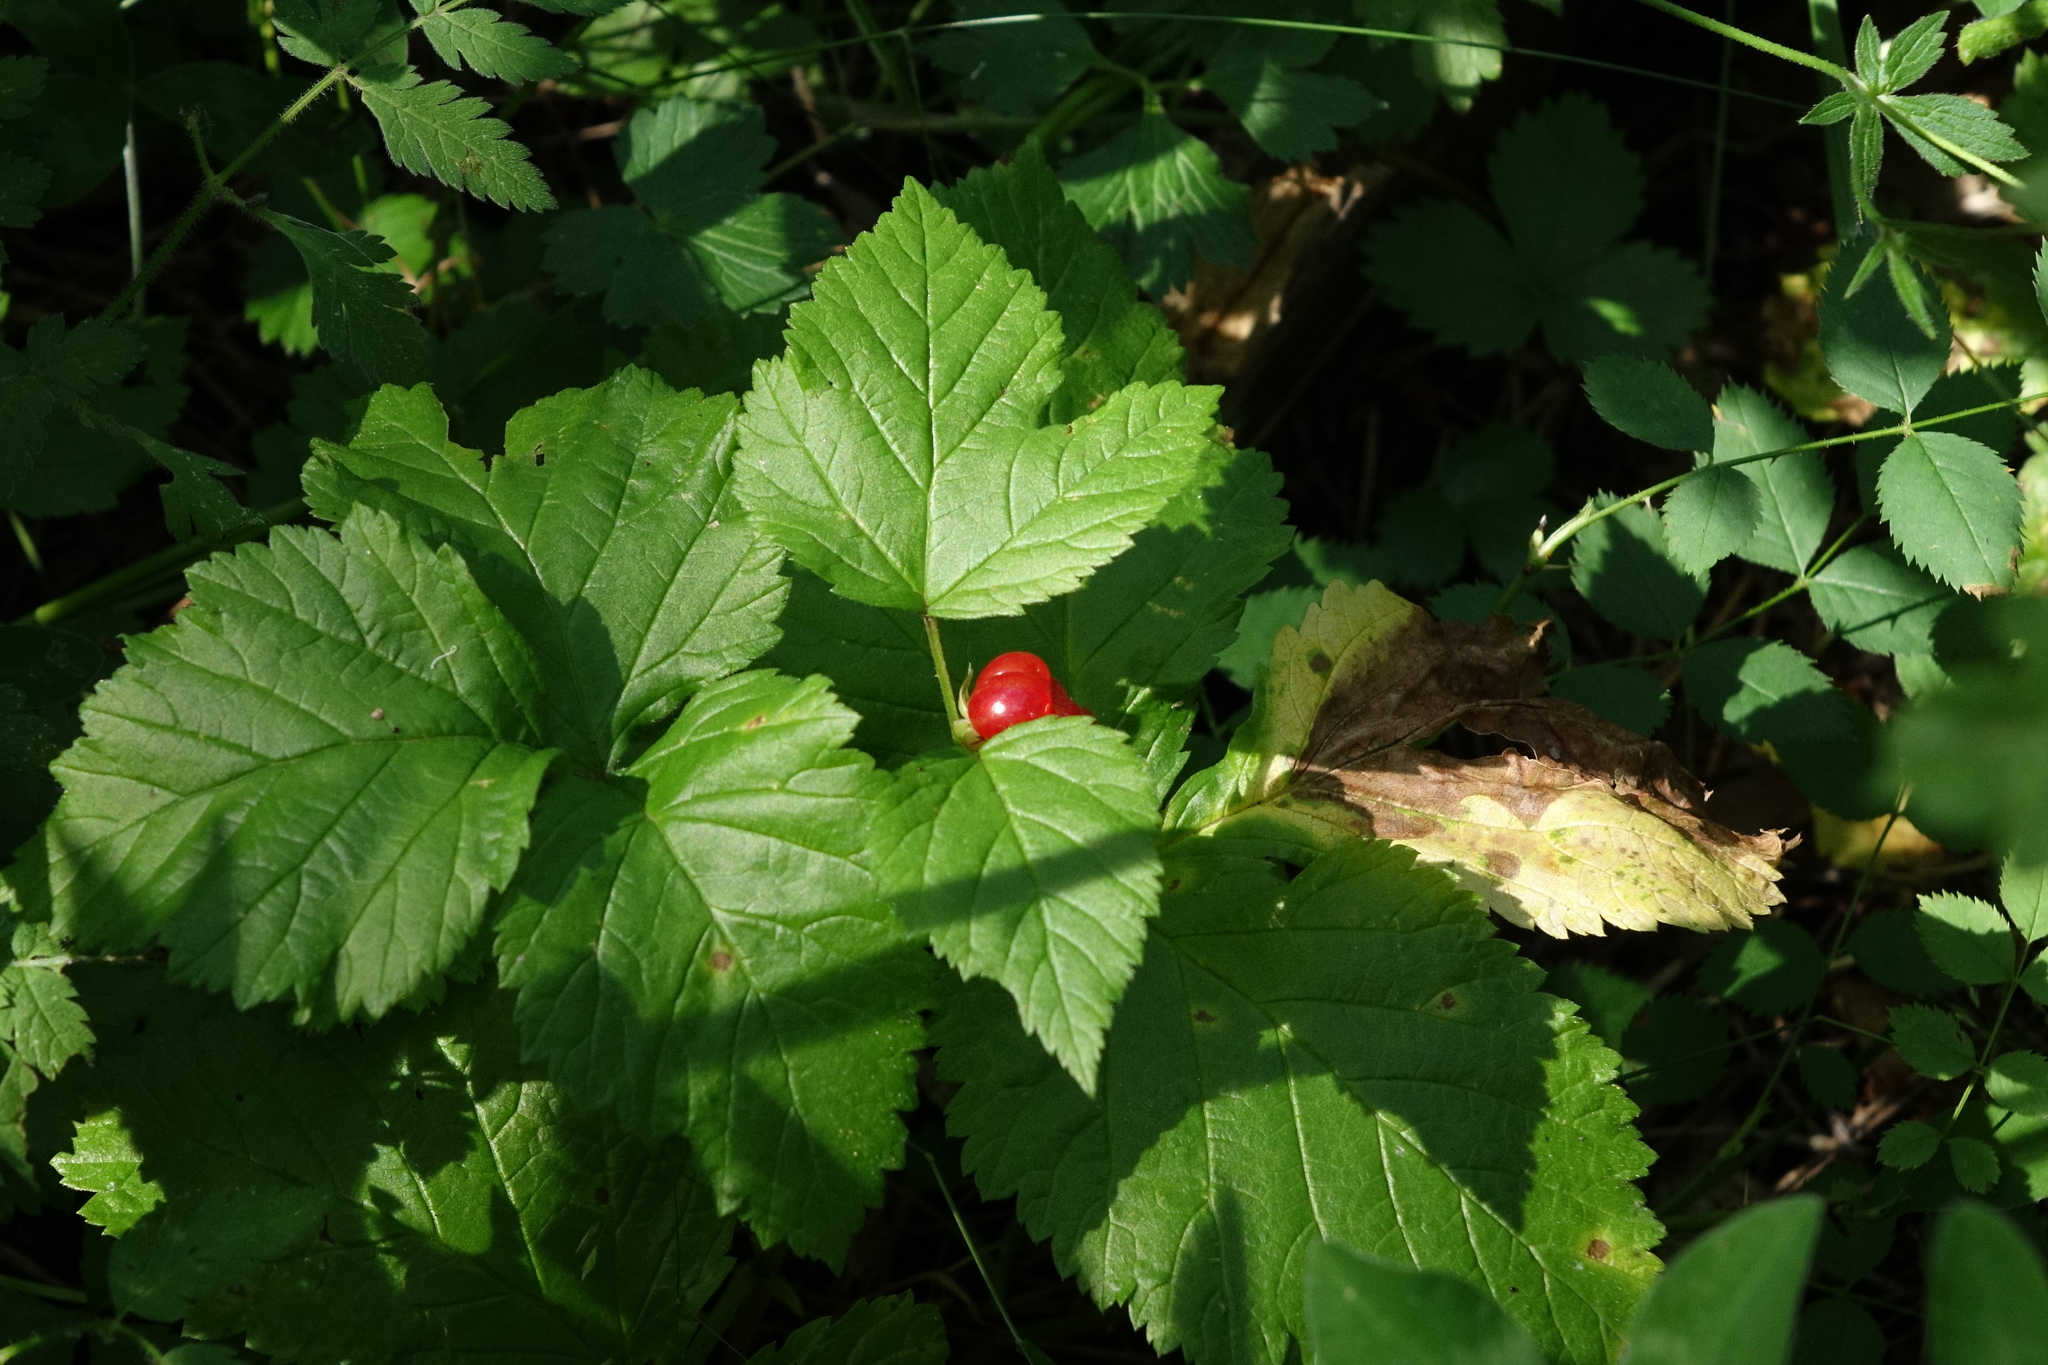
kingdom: Plantae
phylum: Tracheophyta
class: Magnoliopsida
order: Rosales
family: Rosaceae
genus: Rubus
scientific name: Rubus saxatilis
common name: Stone bramble
